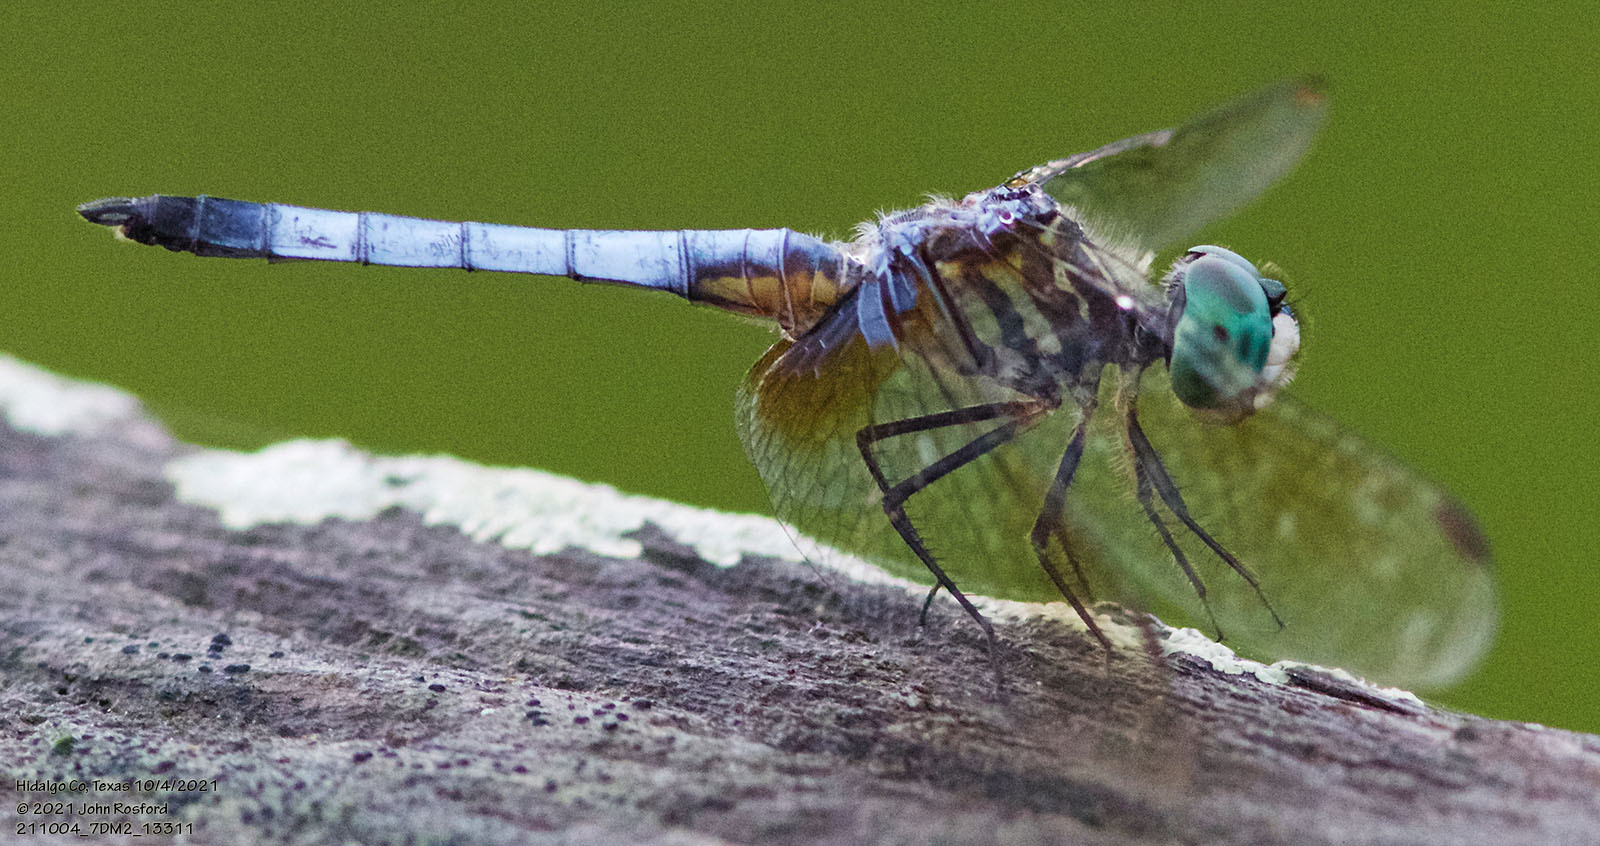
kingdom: Animalia
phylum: Arthropoda
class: Insecta
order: Odonata
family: Libellulidae
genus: Pachydiplax
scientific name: Pachydiplax longipennis
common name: Blue dasher
